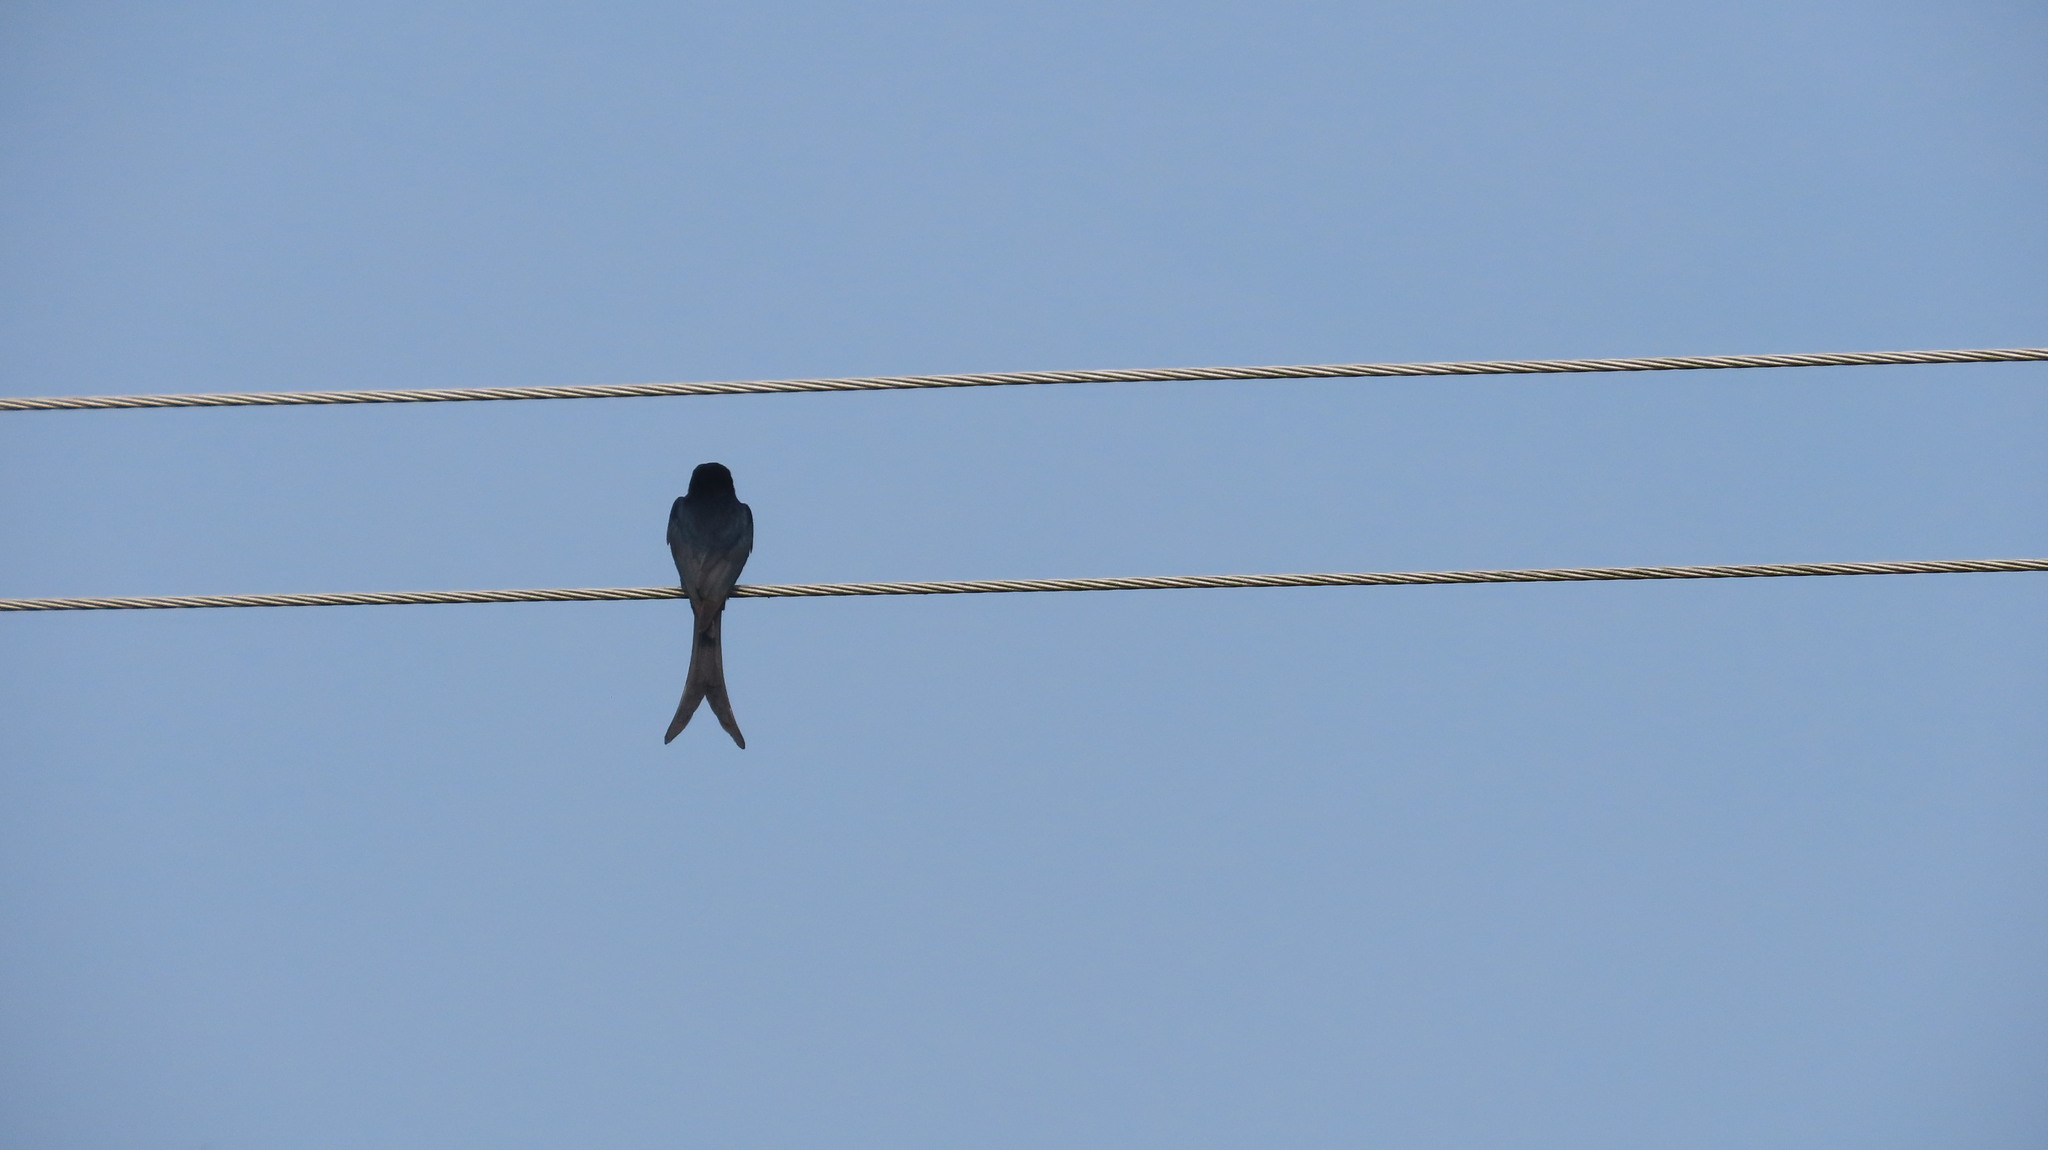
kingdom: Animalia
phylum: Chordata
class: Aves
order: Passeriformes
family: Dicruridae
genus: Dicrurus
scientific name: Dicrurus macrocercus
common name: Black drongo
